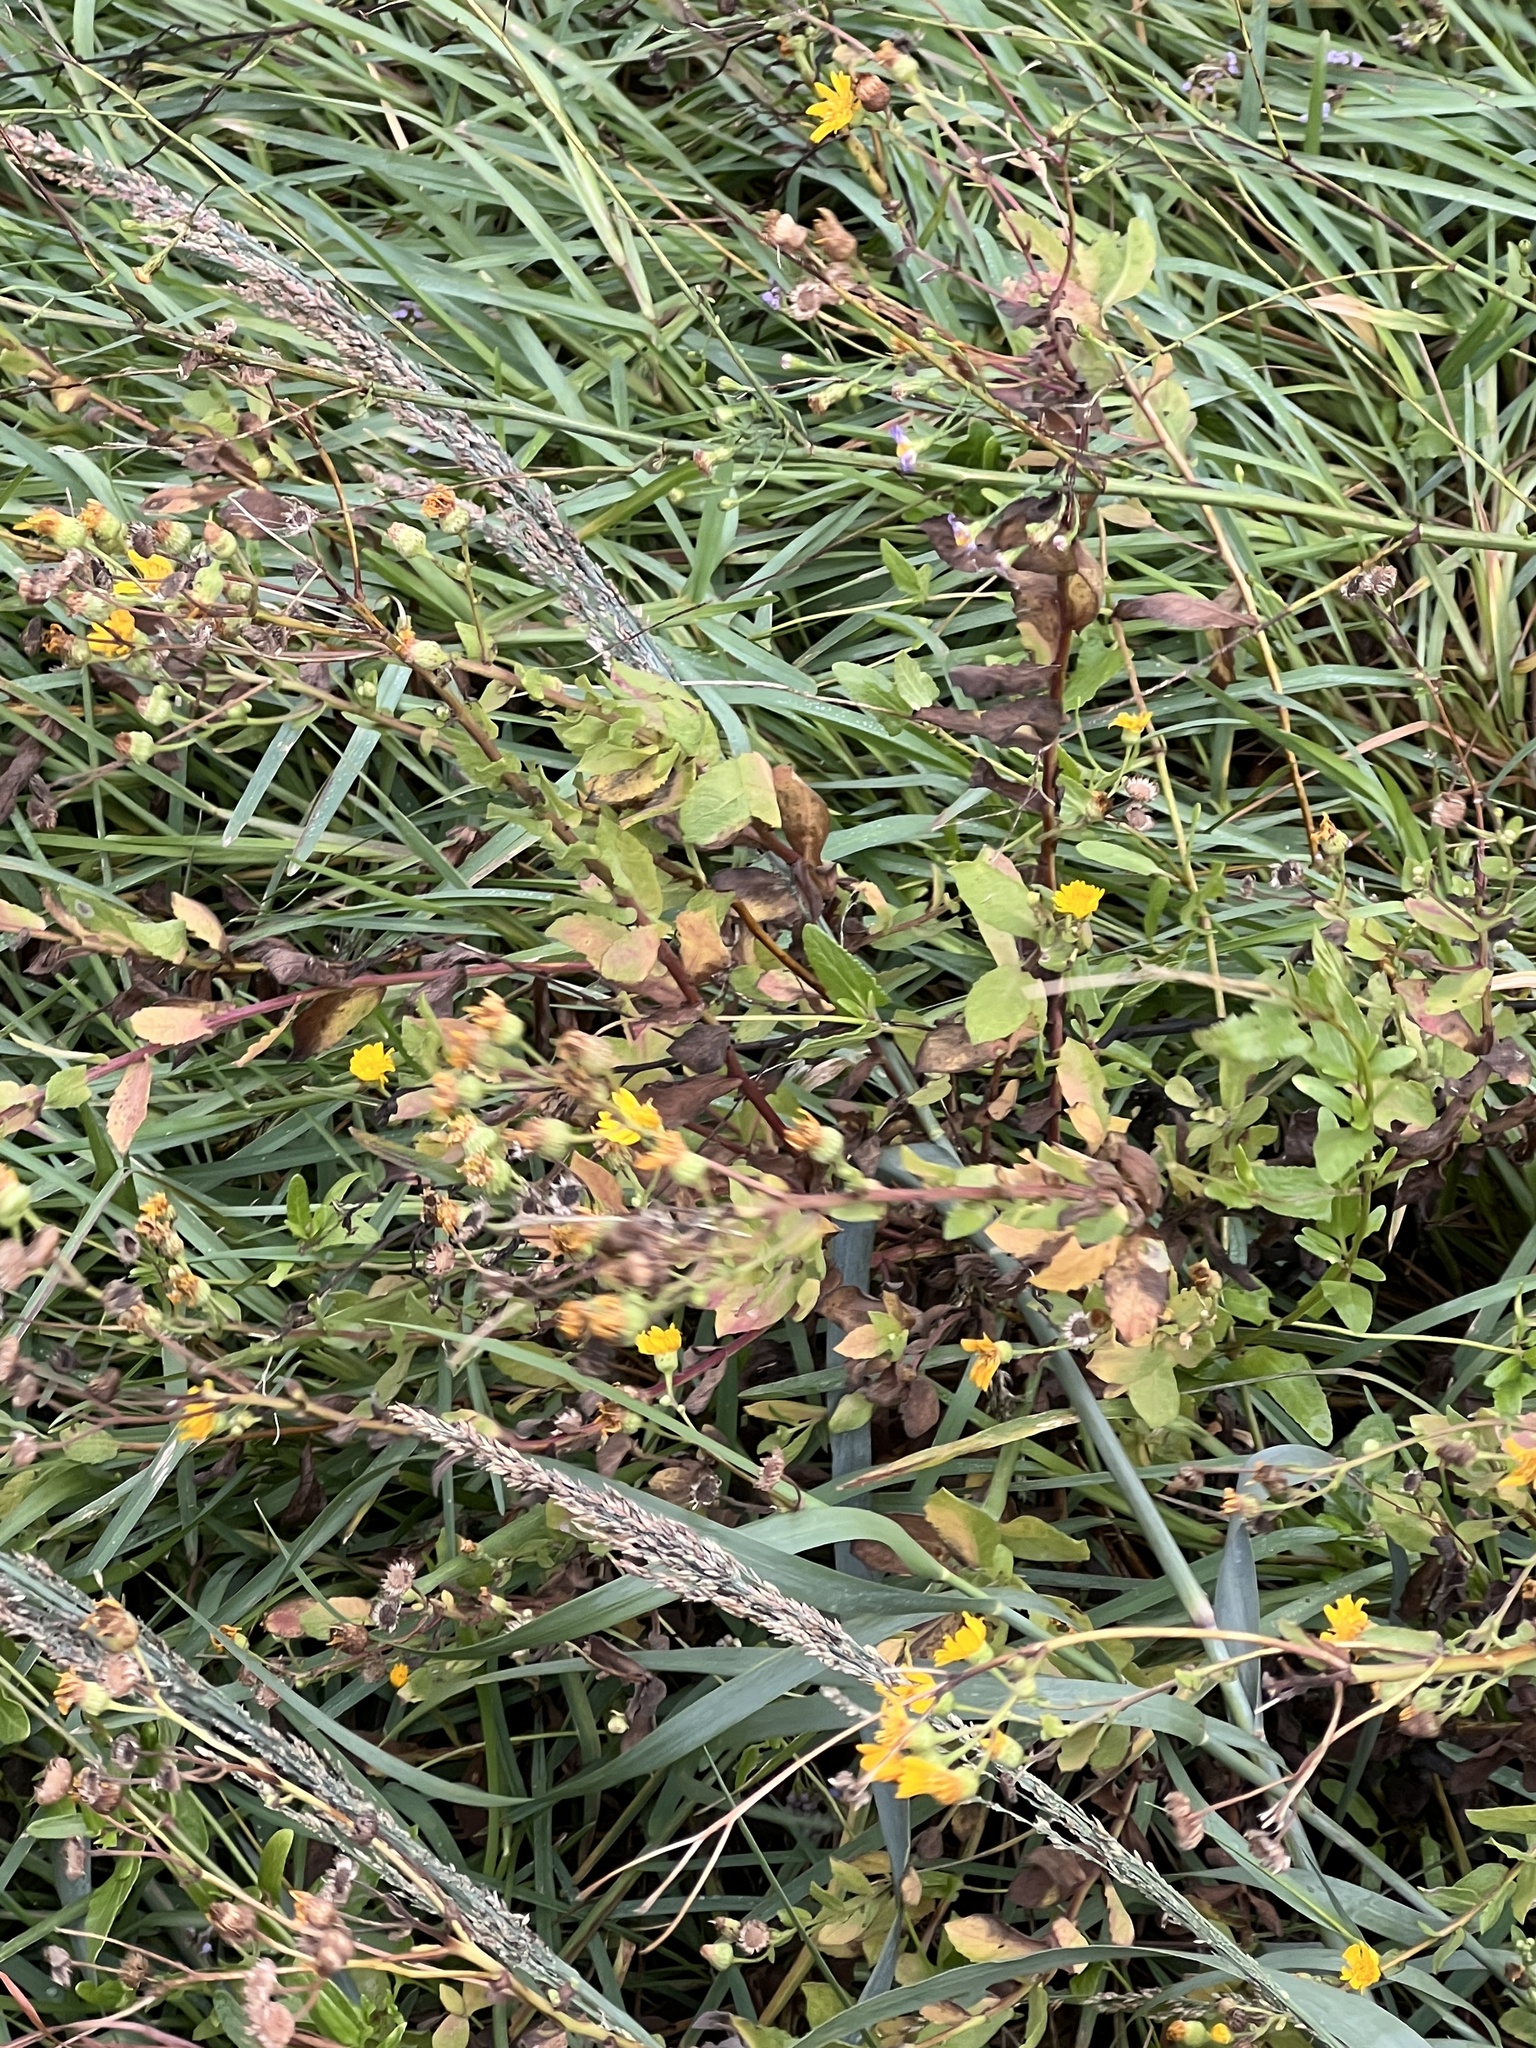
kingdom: Plantae
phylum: Tracheophyta
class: Magnoliopsida
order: Asterales
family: Asteraceae
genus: Heterotheca
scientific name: Heterotheca subaxillaris
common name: Camphorweed
